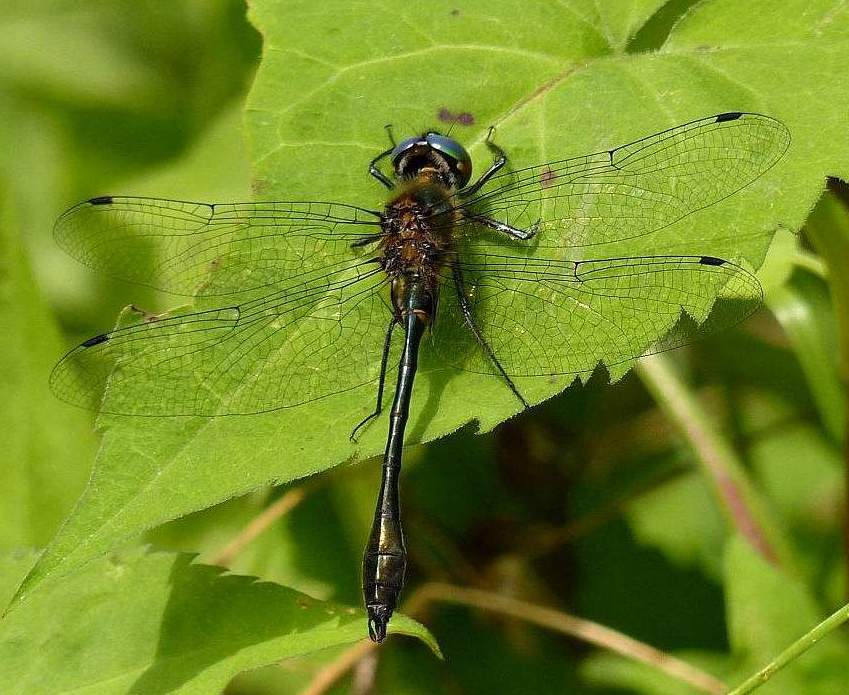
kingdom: Animalia
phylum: Arthropoda
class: Insecta
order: Odonata
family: Corduliidae
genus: Dorocordulia
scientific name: Dorocordulia libera
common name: Racket-tailed emerald
